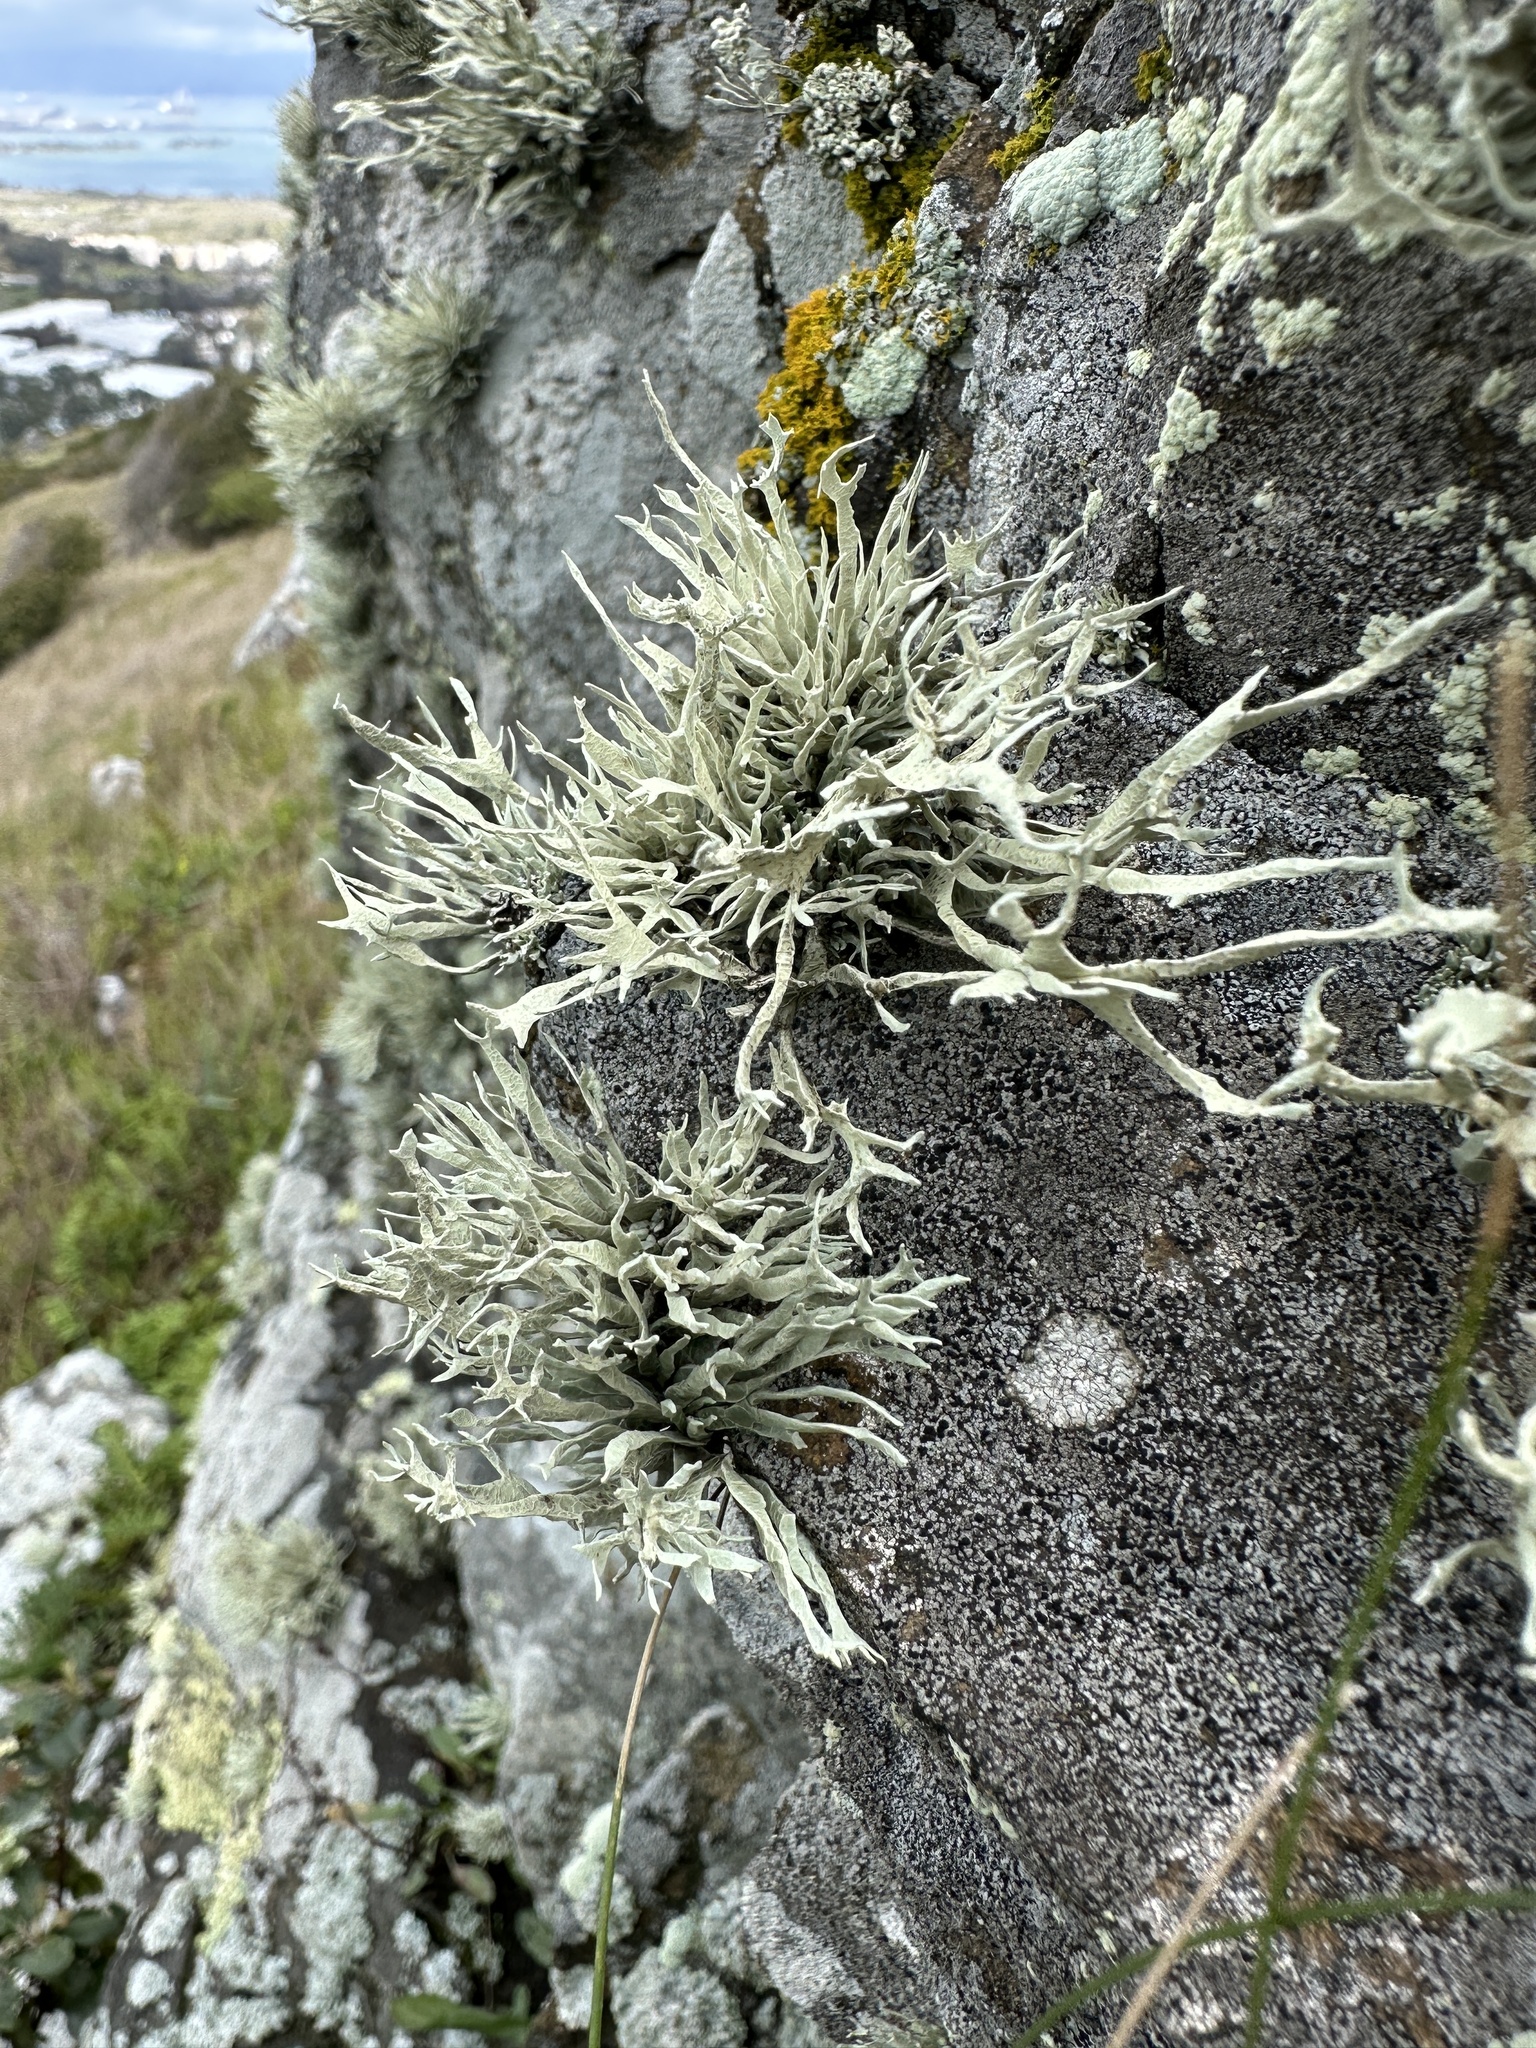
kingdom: Fungi
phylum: Ascomycota
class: Lecanoromycetes
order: Lecanorales
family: Ramalinaceae
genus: Niebla
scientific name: Niebla homalea
